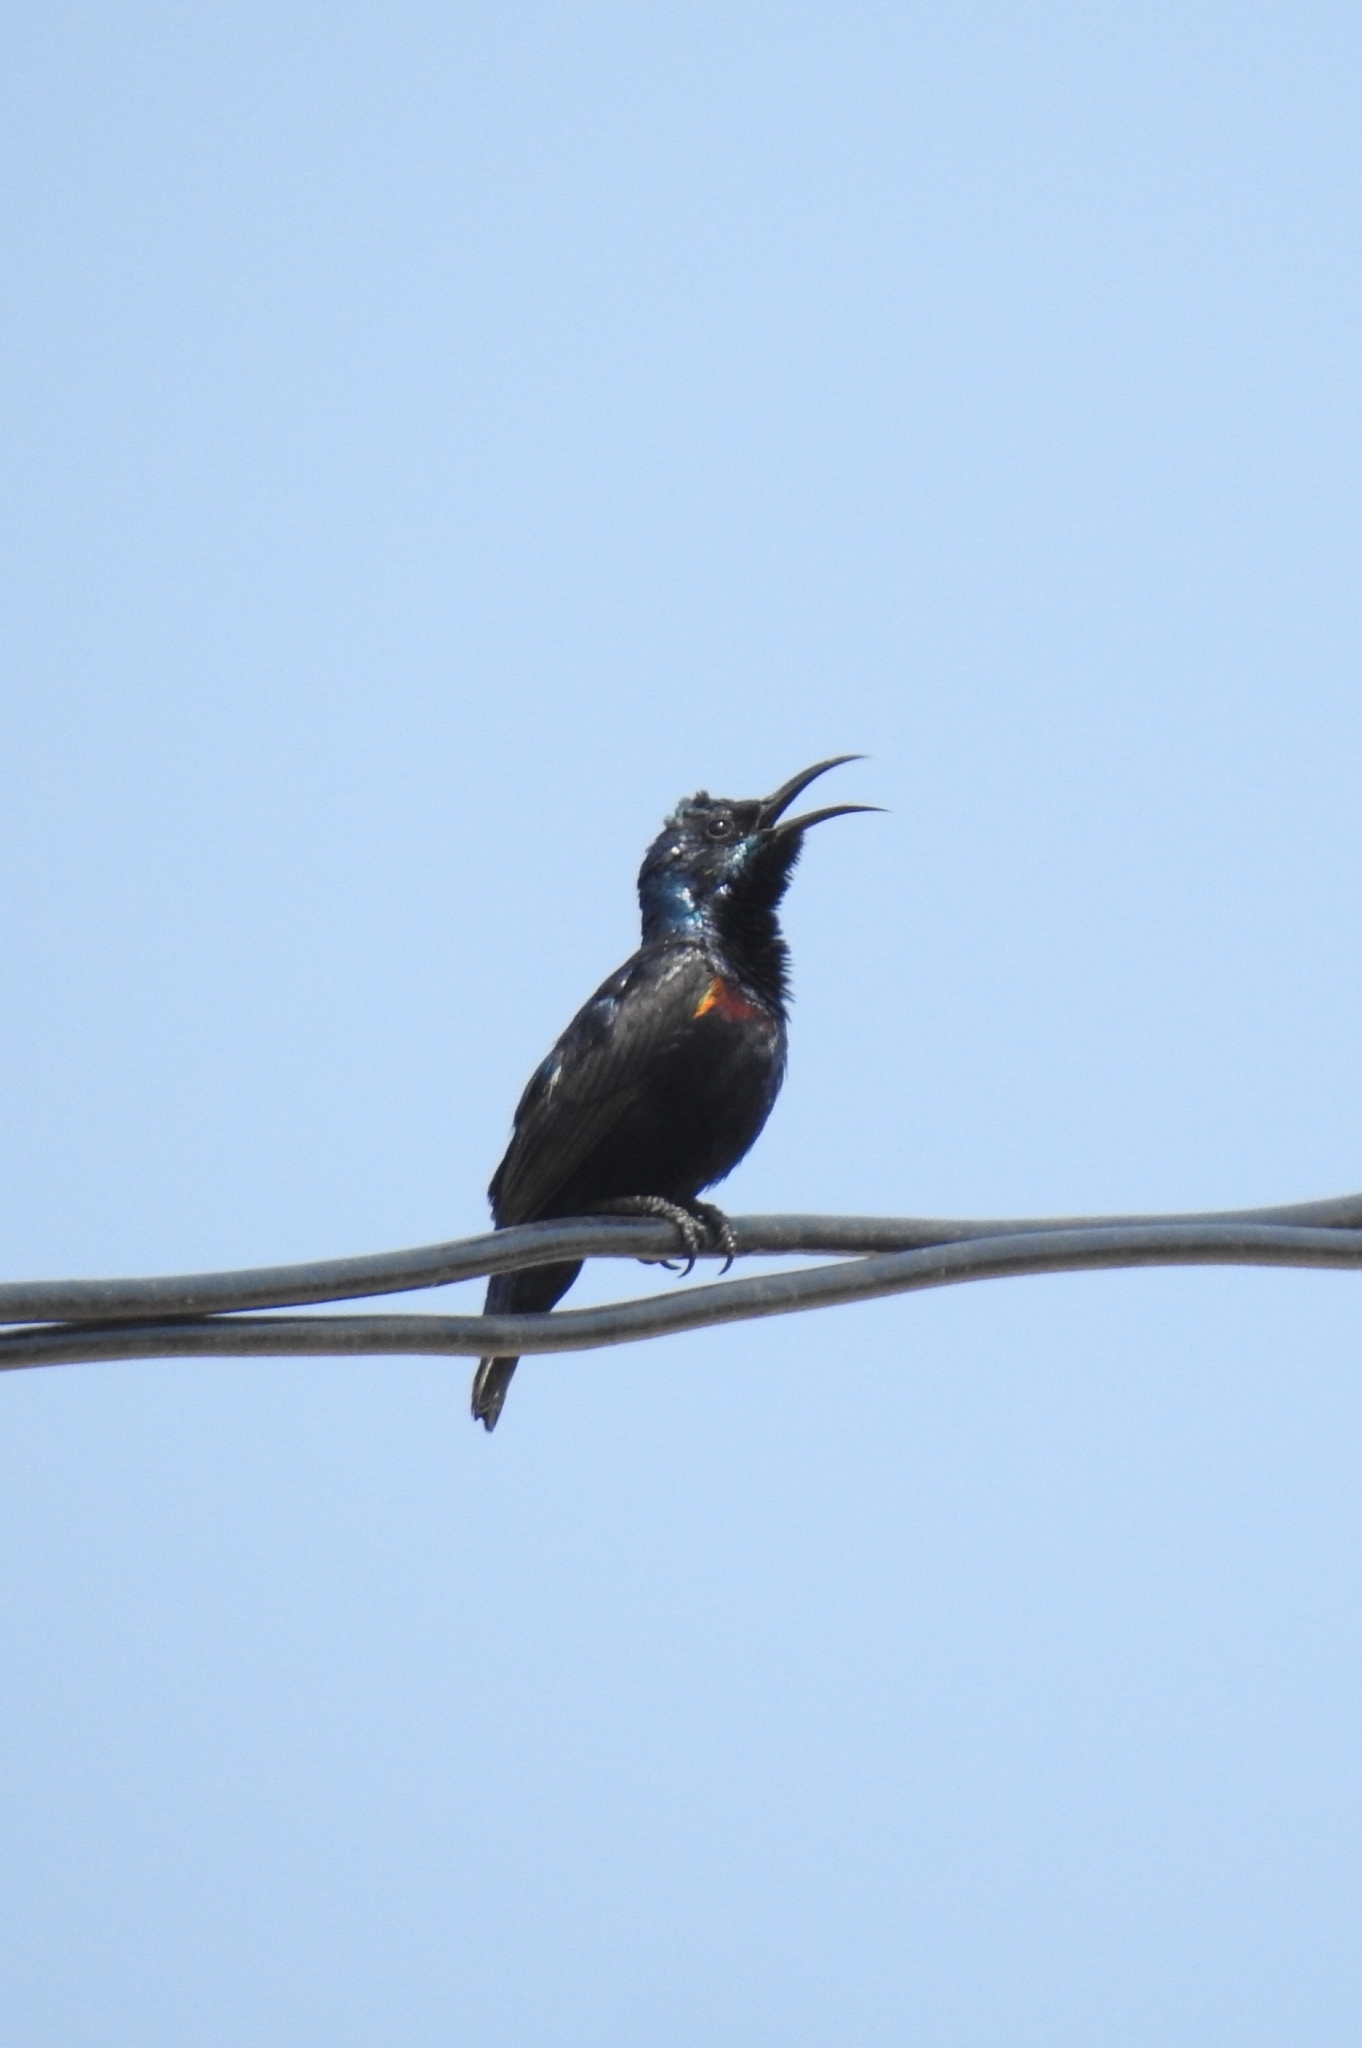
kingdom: Animalia
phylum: Chordata
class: Aves
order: Passeriformes
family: Nectariniidae
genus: Cinnyris
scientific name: Cinnyris asiaticus
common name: Purple sunbird
